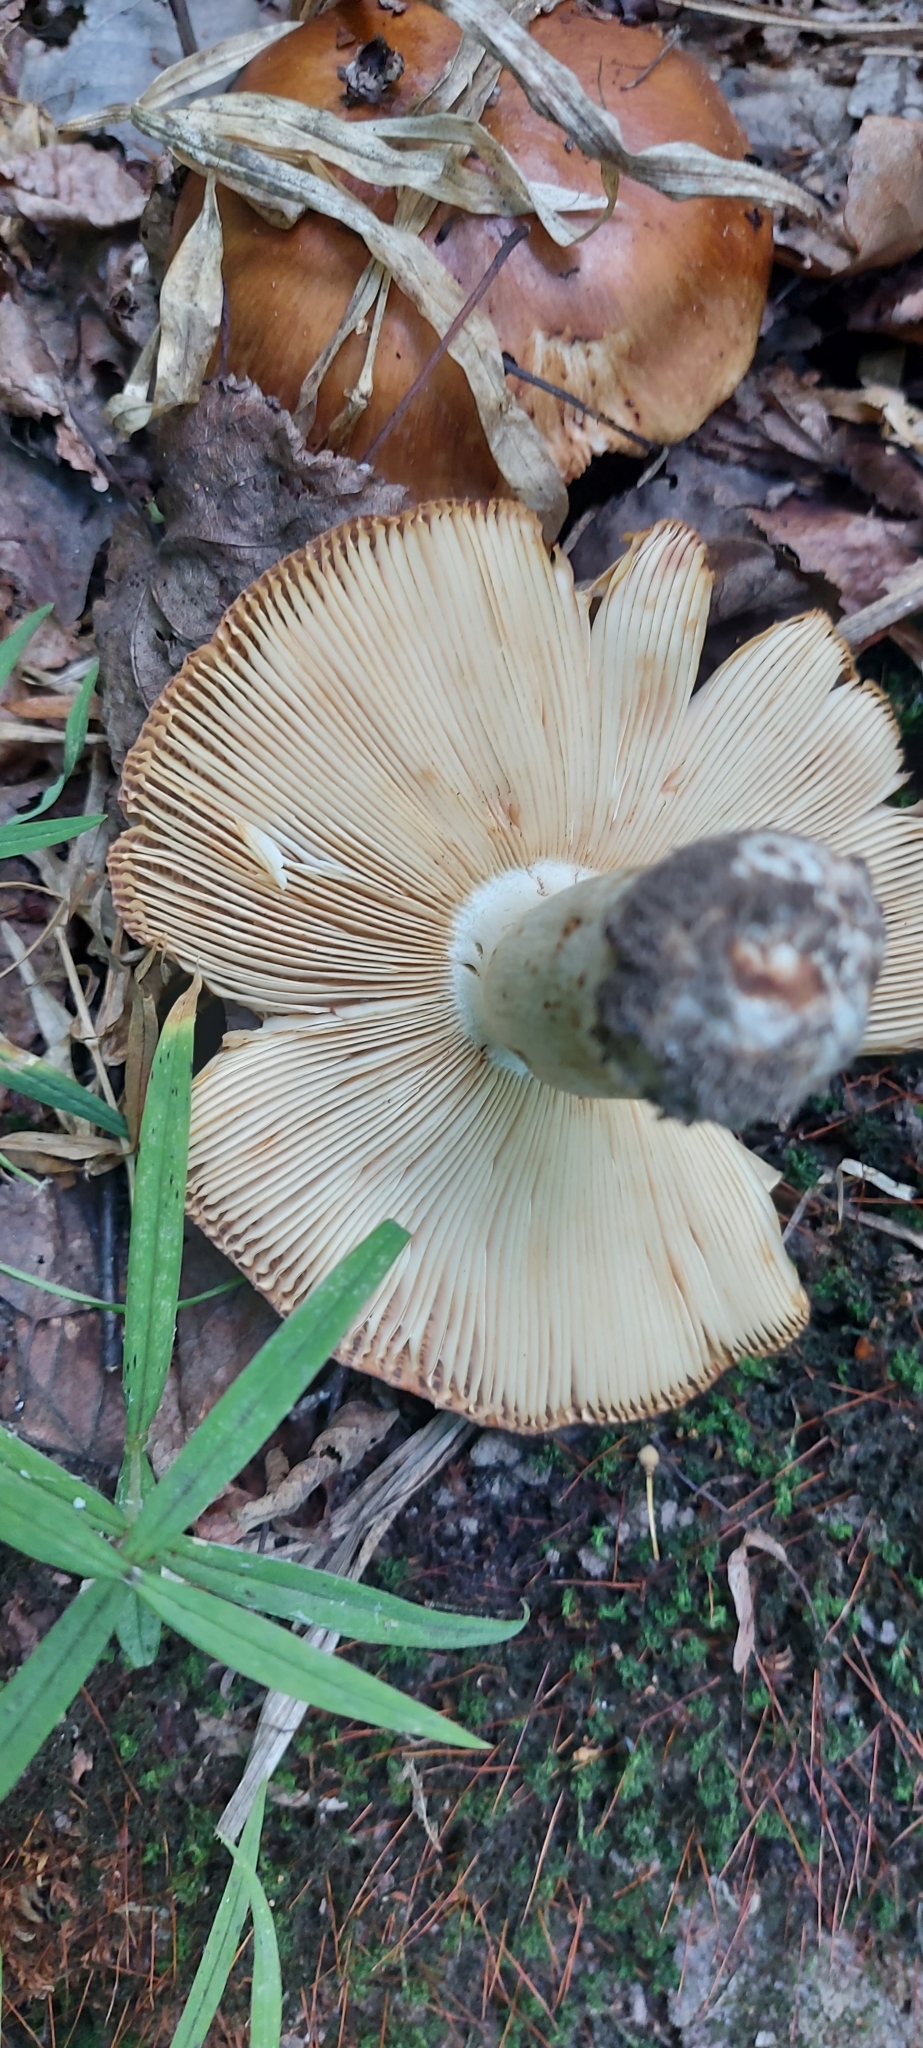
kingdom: Fungi
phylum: Basidiomycota
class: Agaricomycetes
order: Russulales
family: Russulaceae
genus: Russula
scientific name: Russula foetens
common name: Foetid russula
